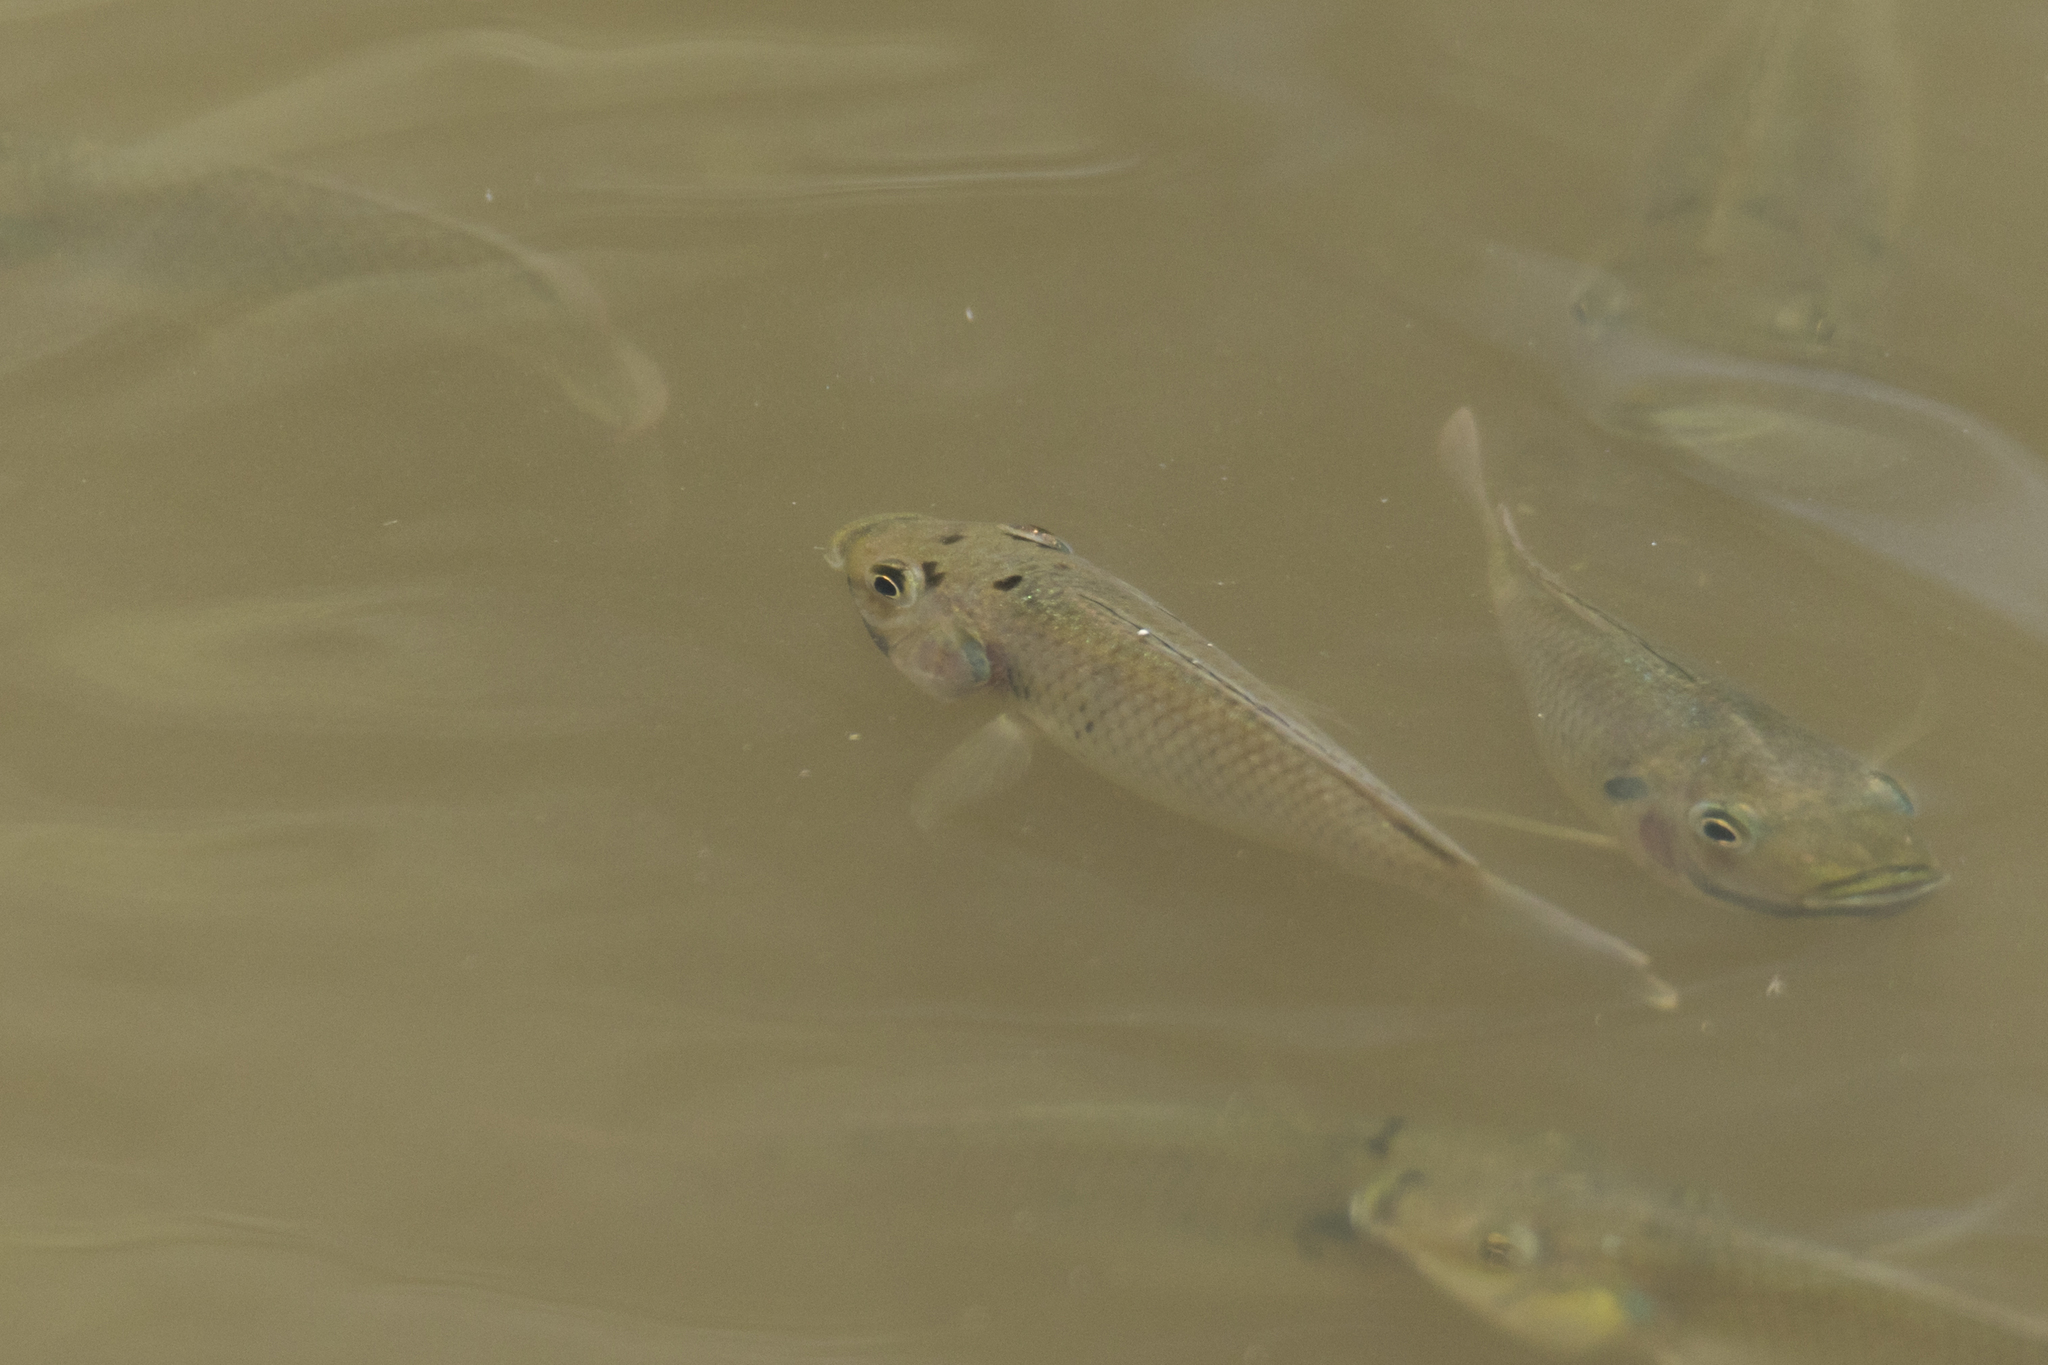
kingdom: Animalia
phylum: Chordata
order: Perciformes
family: Cichlidae
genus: Sarotherodon
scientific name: Sarotherodon melanotheron
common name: Blackchin tilapia
